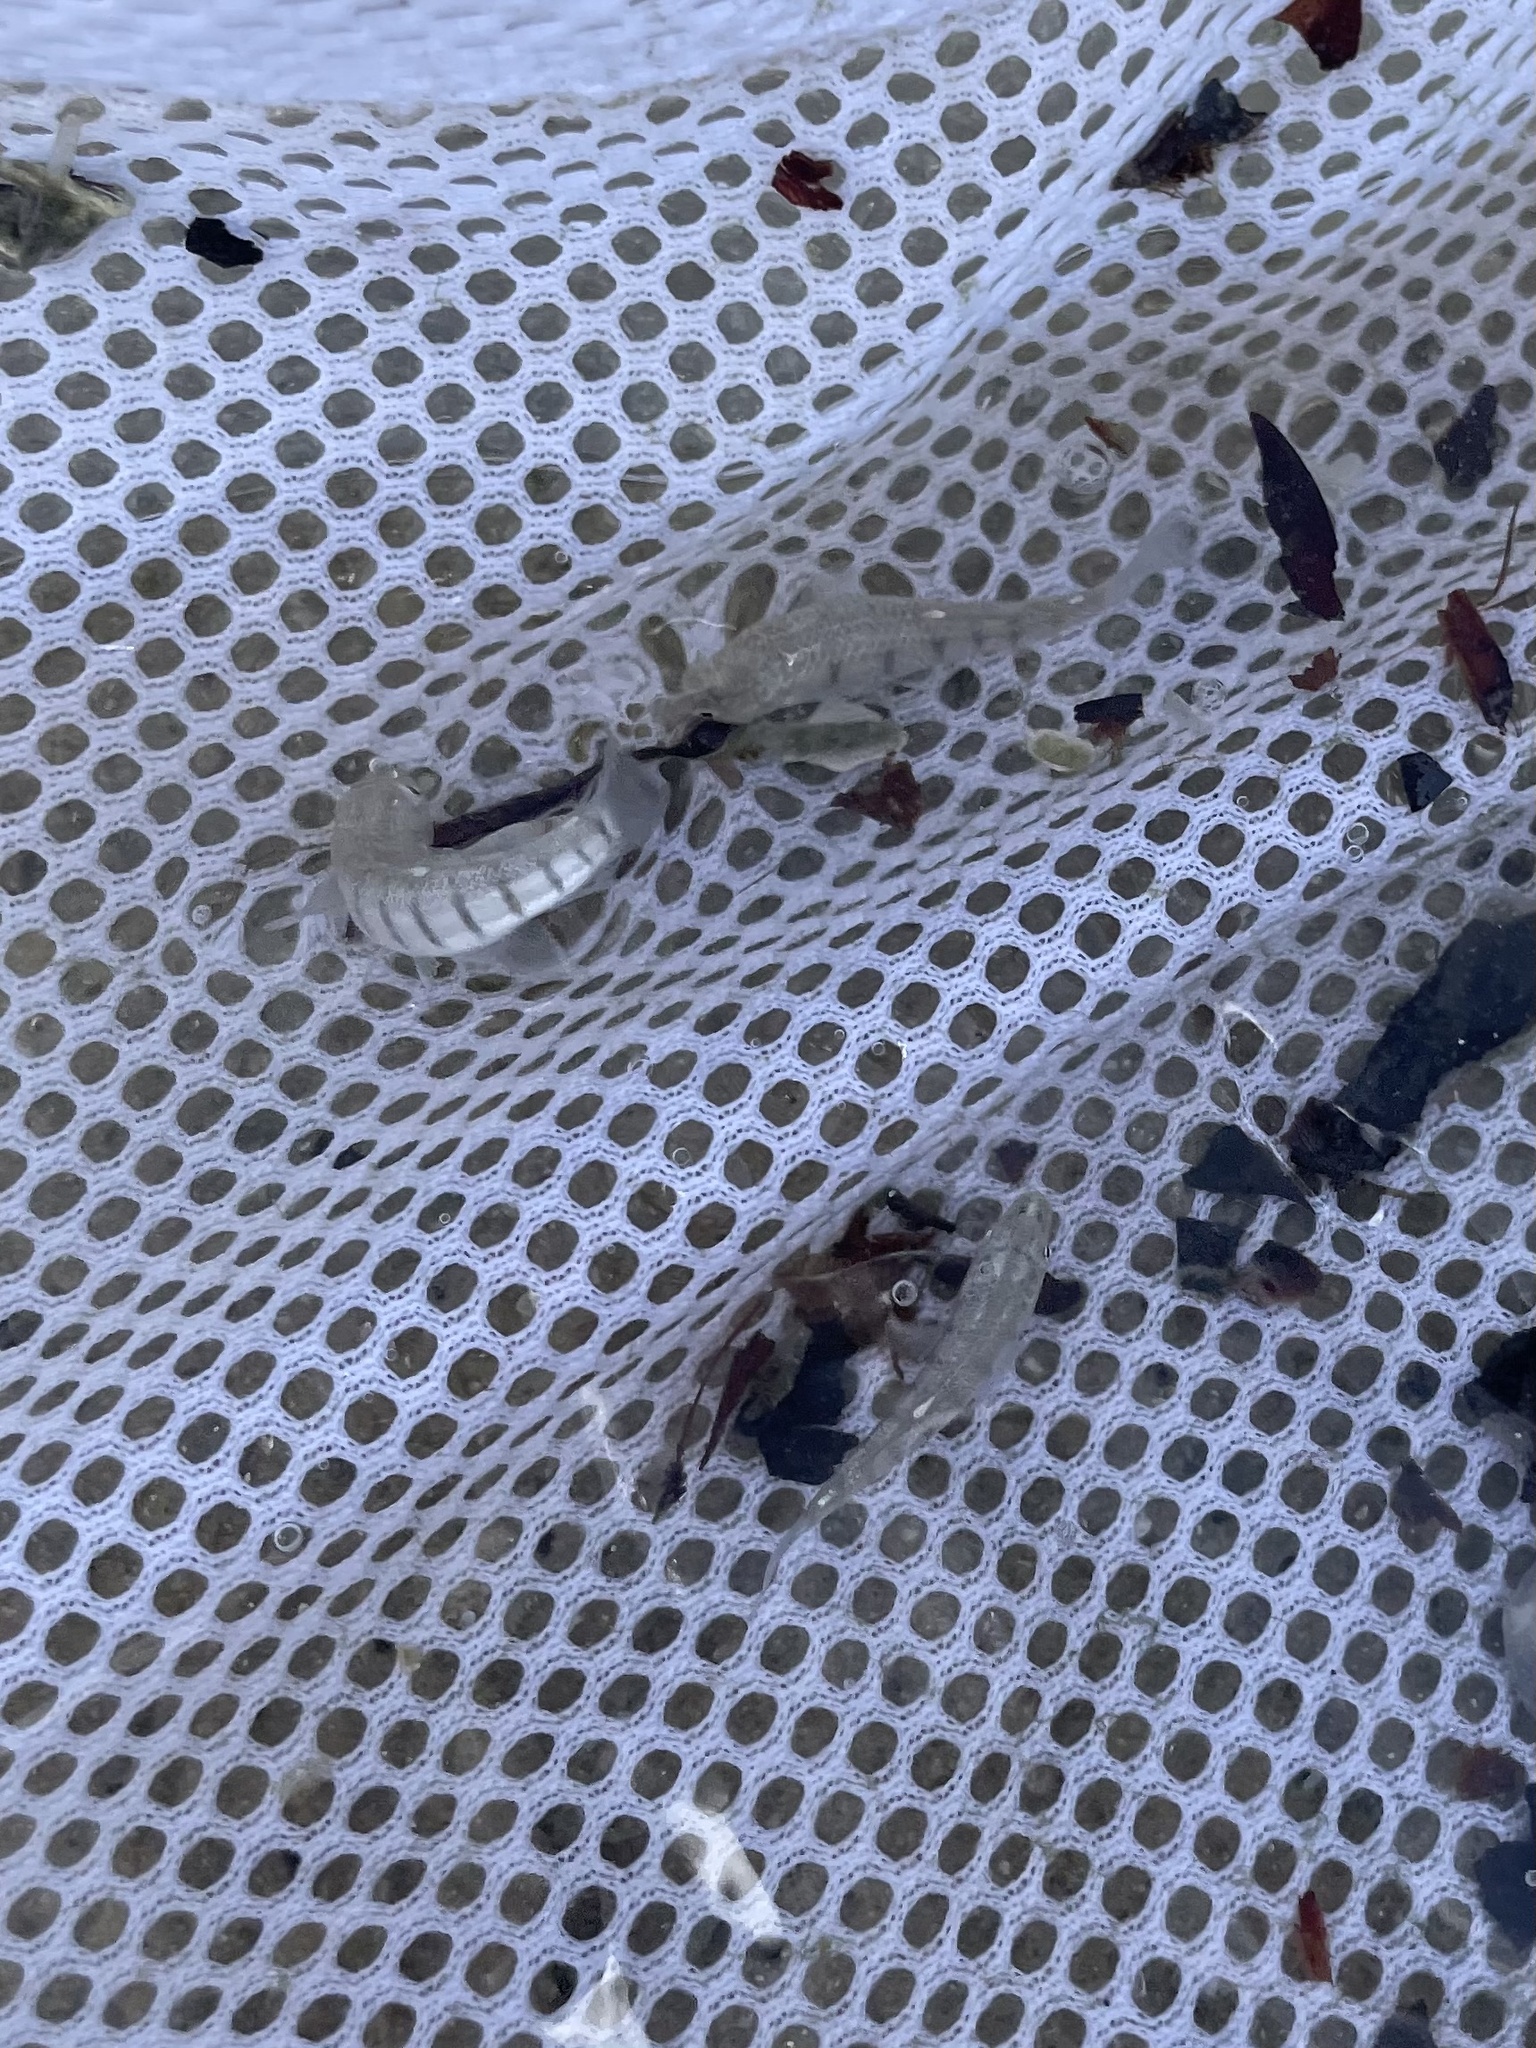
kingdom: Animalia
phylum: Chordata
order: Cyprinodontiformes
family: Fundulidae
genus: Fundulus
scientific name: Fundulus similis
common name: Longnose killifish
